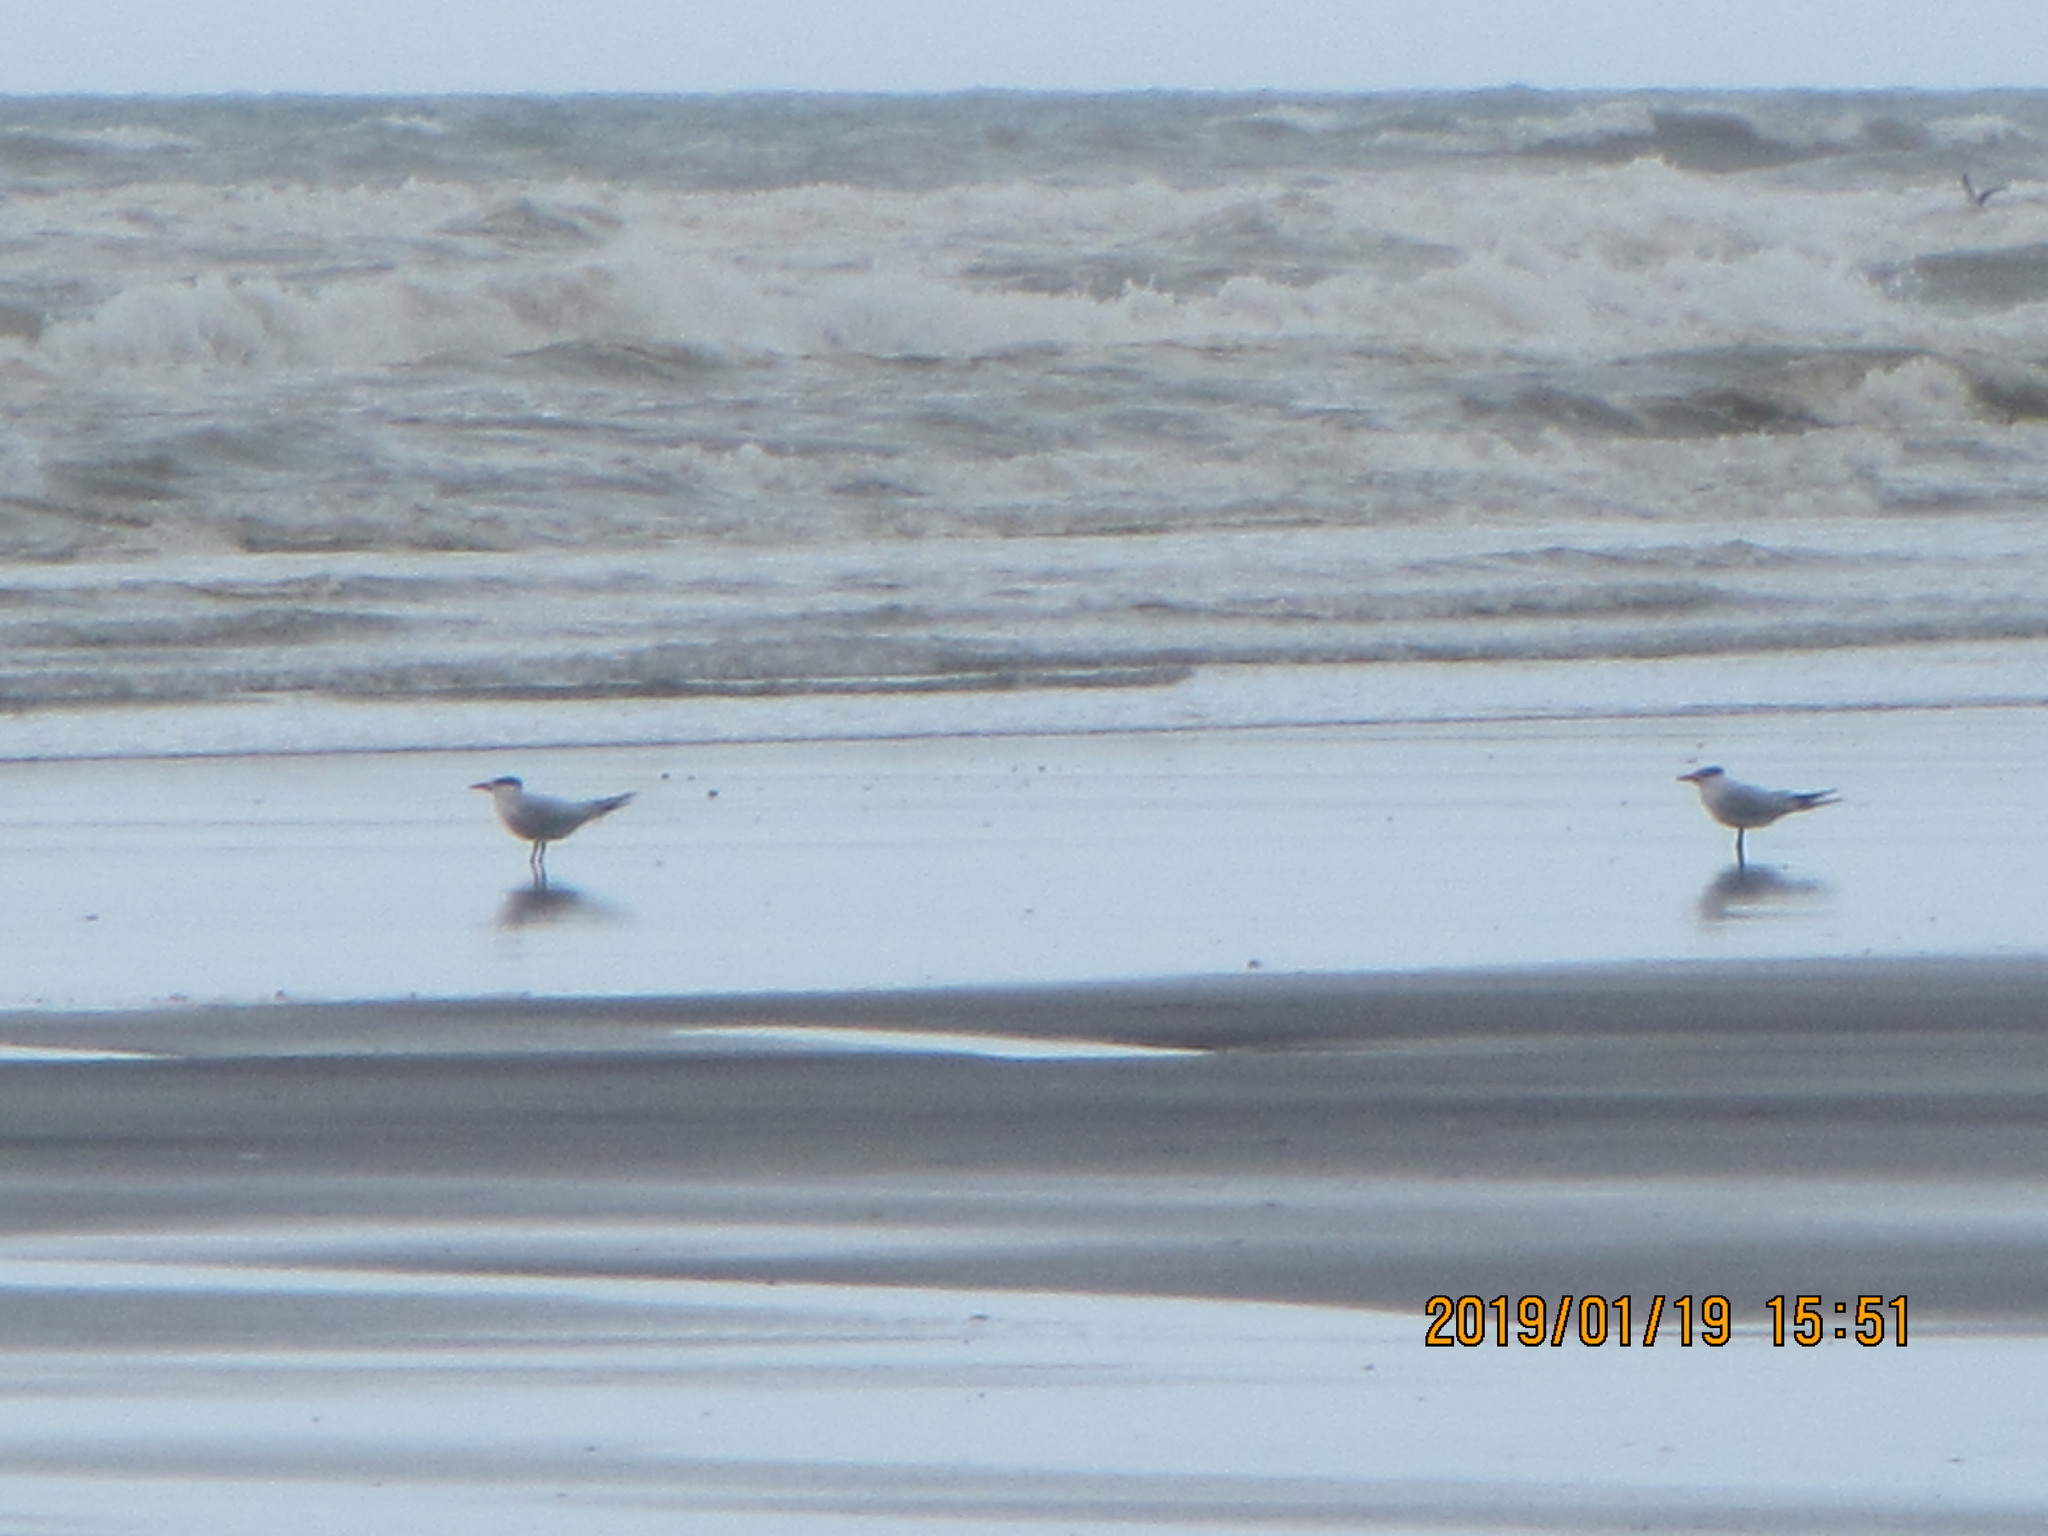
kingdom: Animalia
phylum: Chordata
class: Aves
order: Charadriiformes
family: Laridae
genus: Hydroprogne
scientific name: Hydroprogne caspia
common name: Caspian tern
